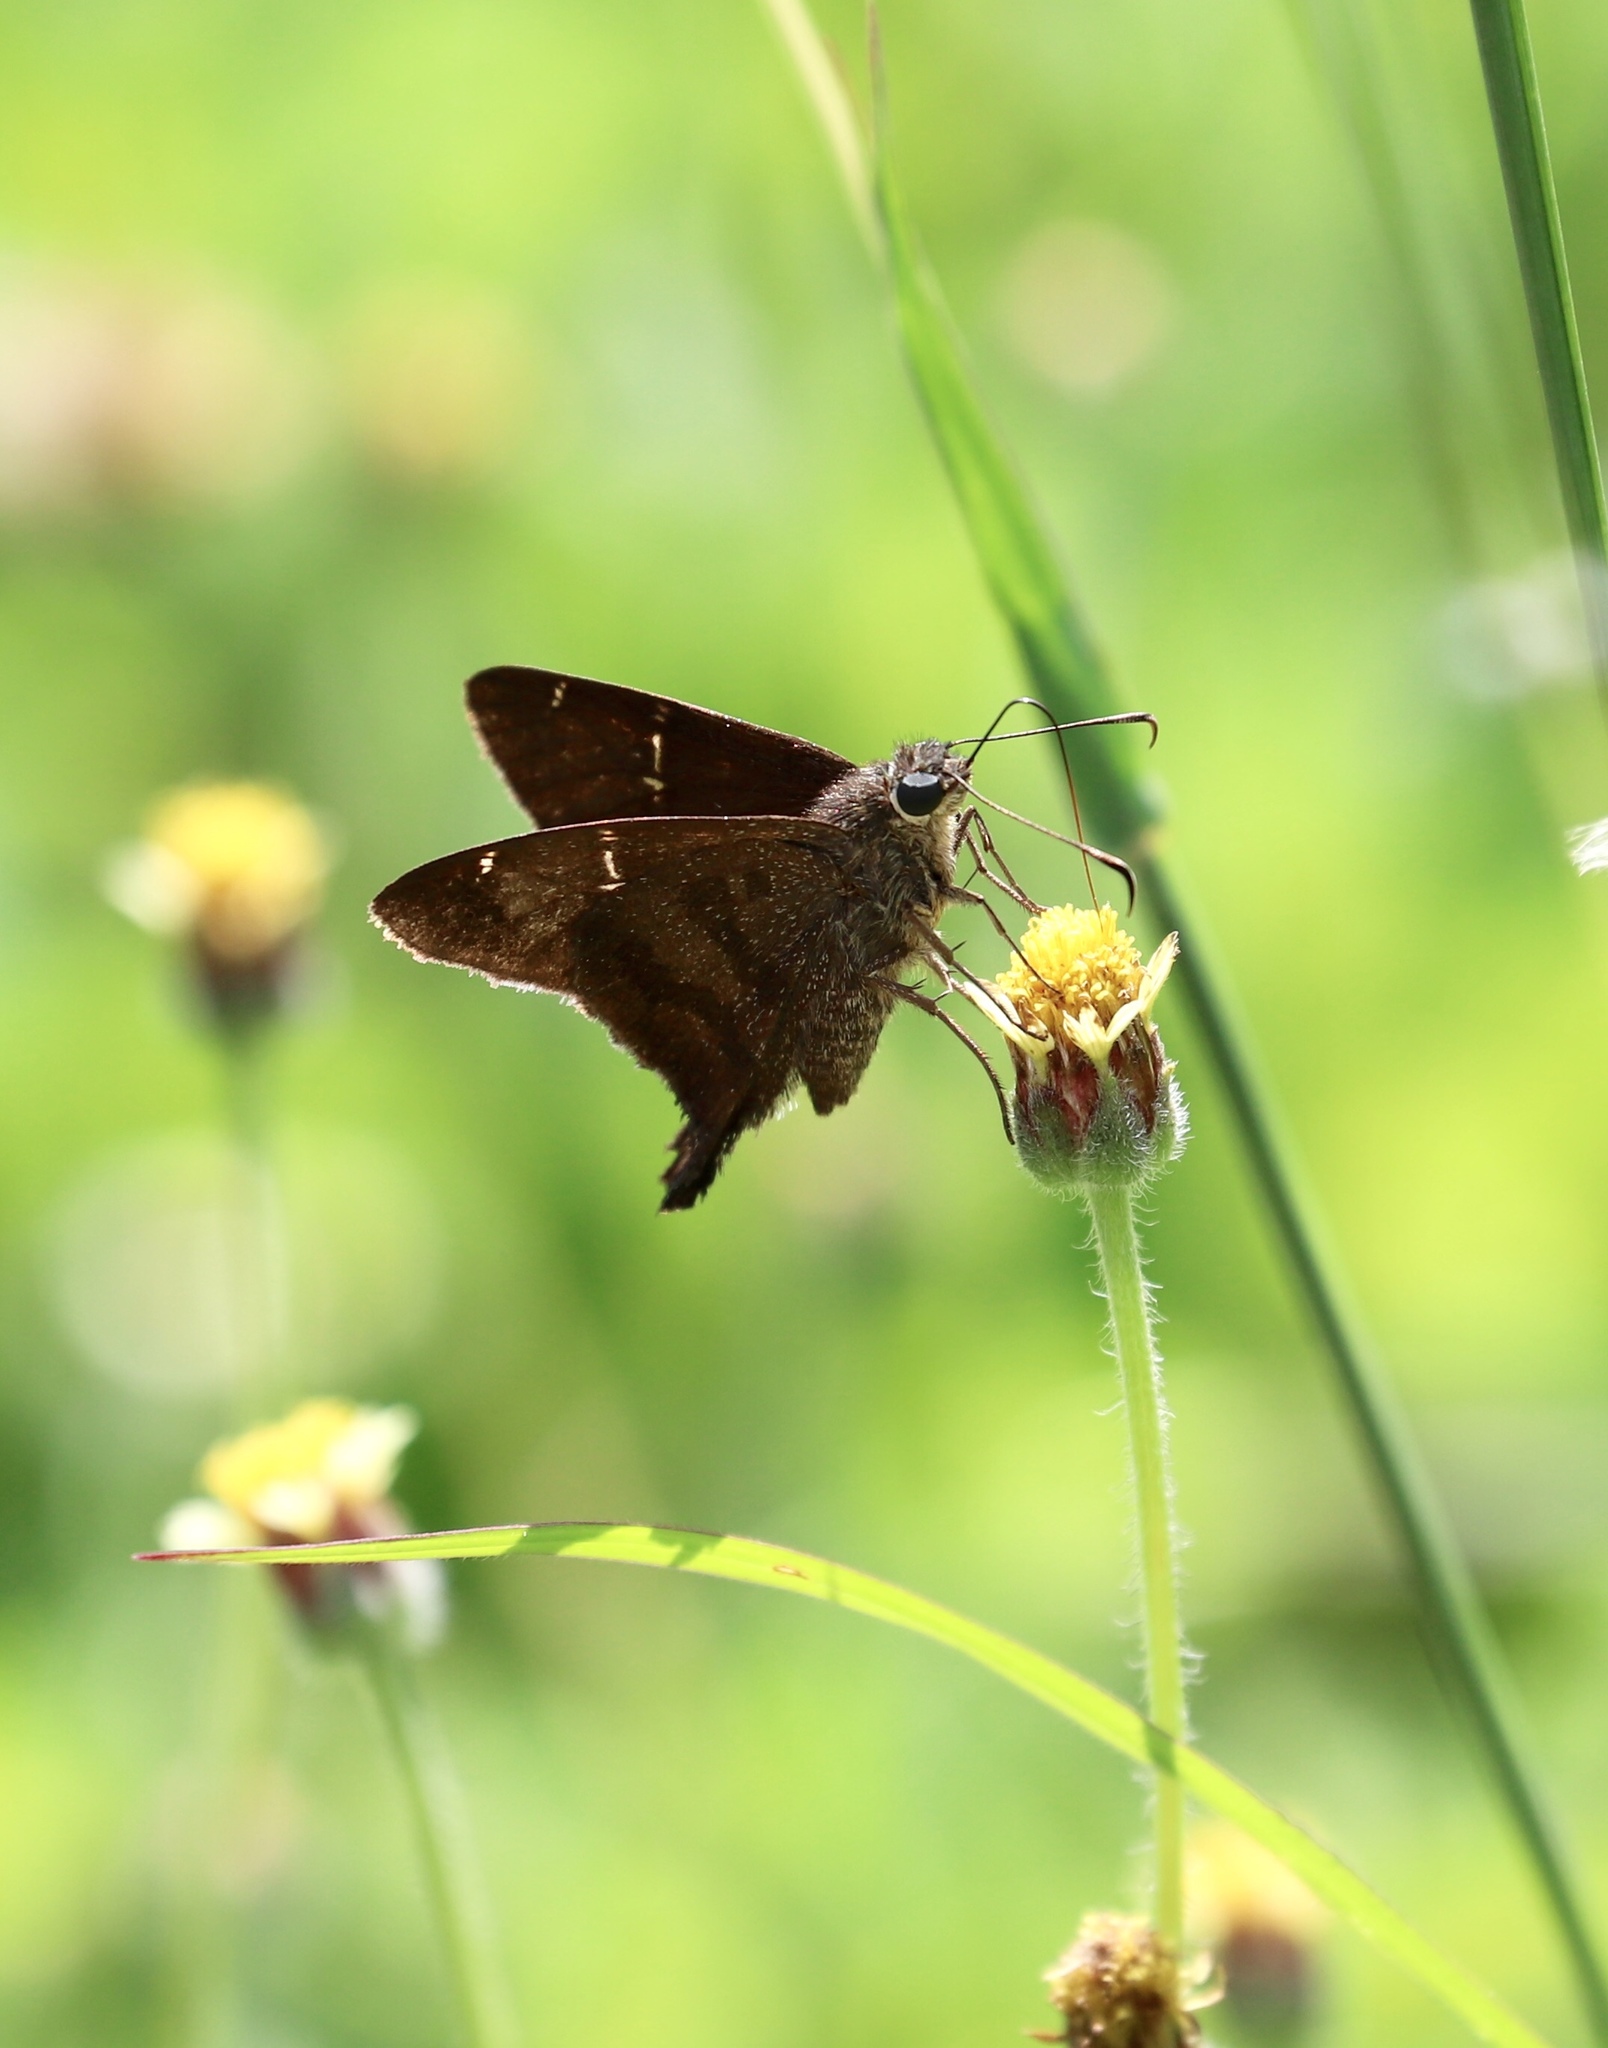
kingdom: Animalia
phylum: Arthropoda
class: Insecta
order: Lepidoptera
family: Hesperiidae
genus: Urbanus
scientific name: Urbanus procne
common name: Brown longtail
